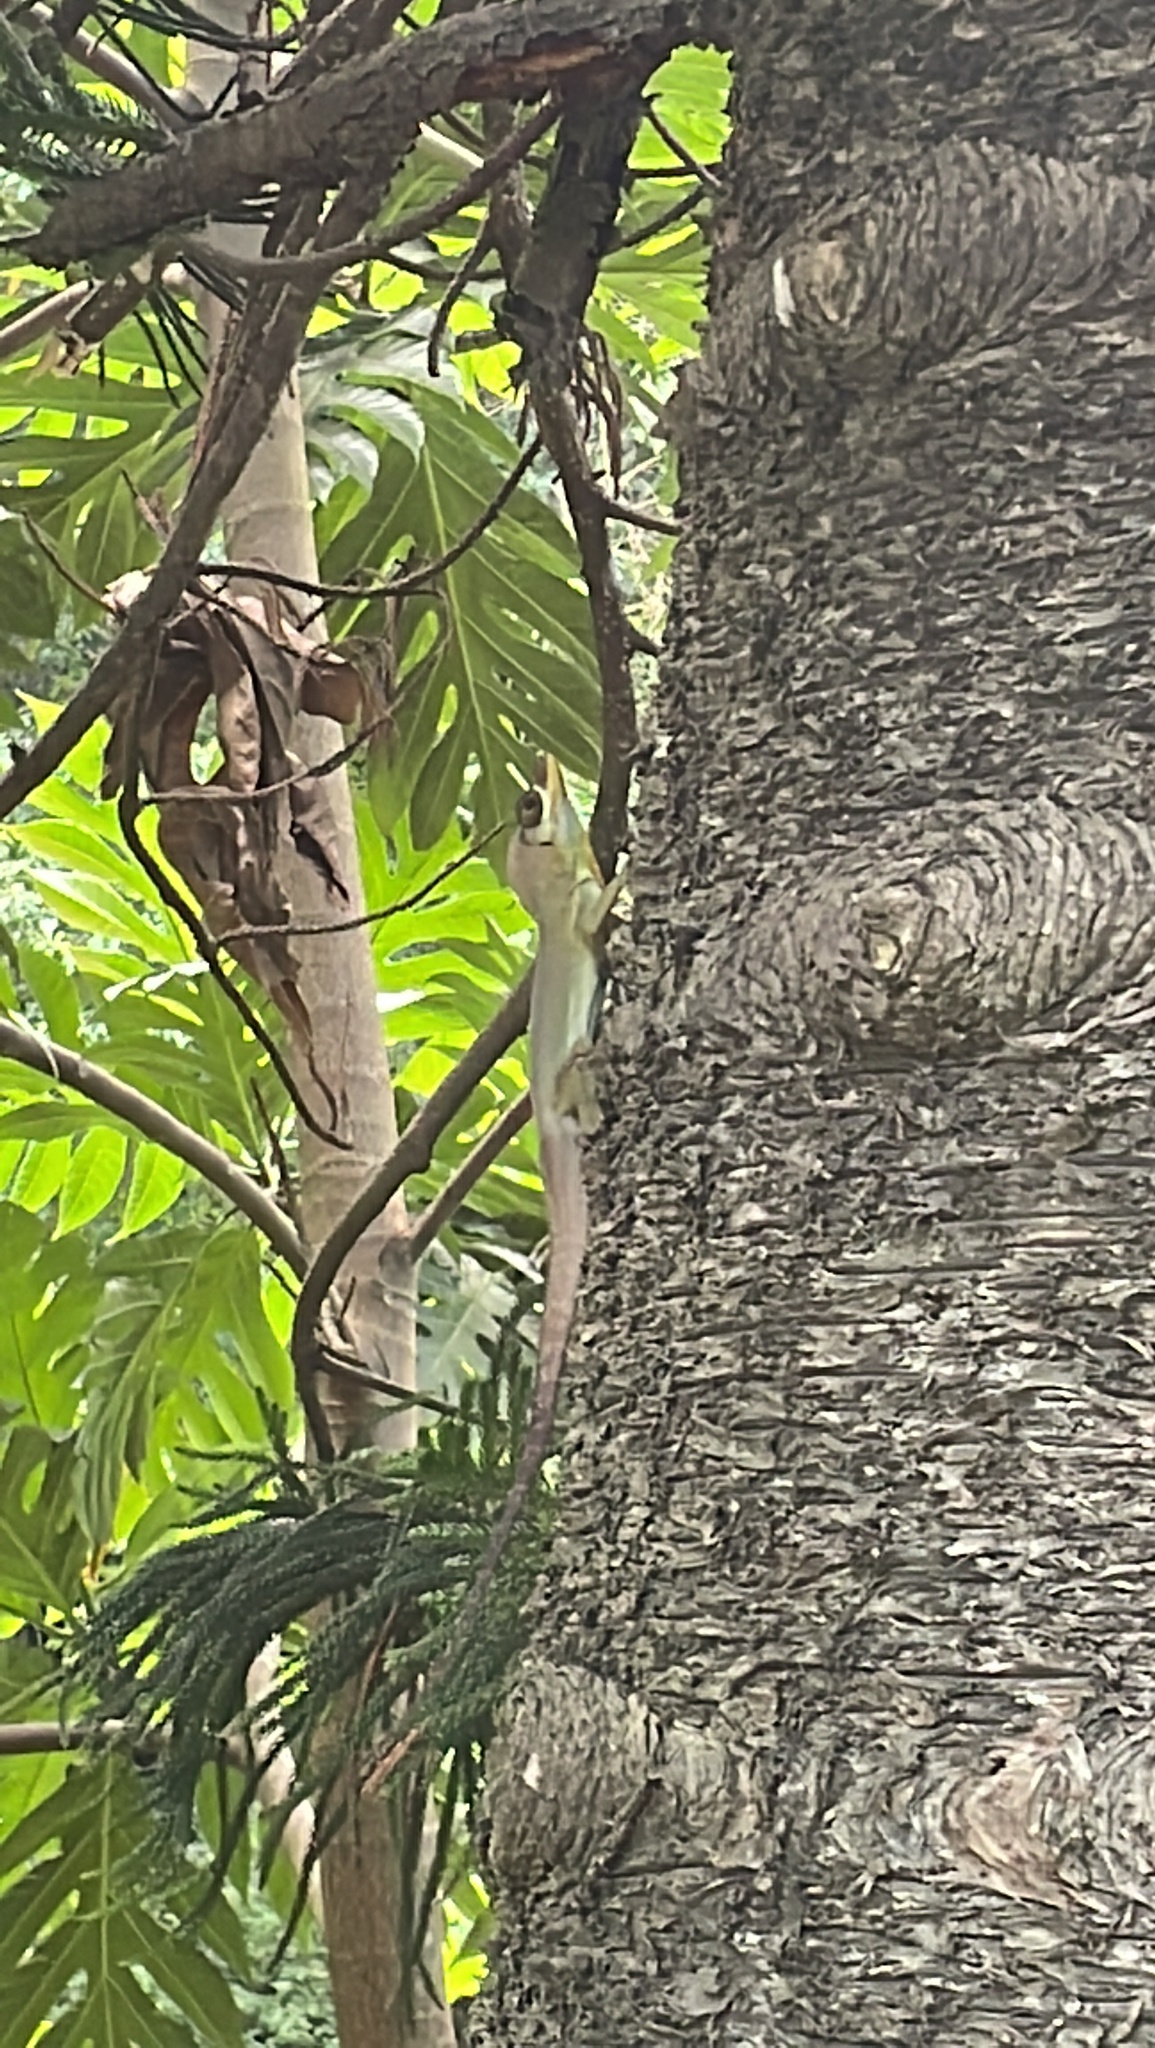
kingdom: Animalia
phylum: Chordata
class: Squamata
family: Dactyloidae
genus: Anolis
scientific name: Anolis richardii
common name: Grenada tree anole
